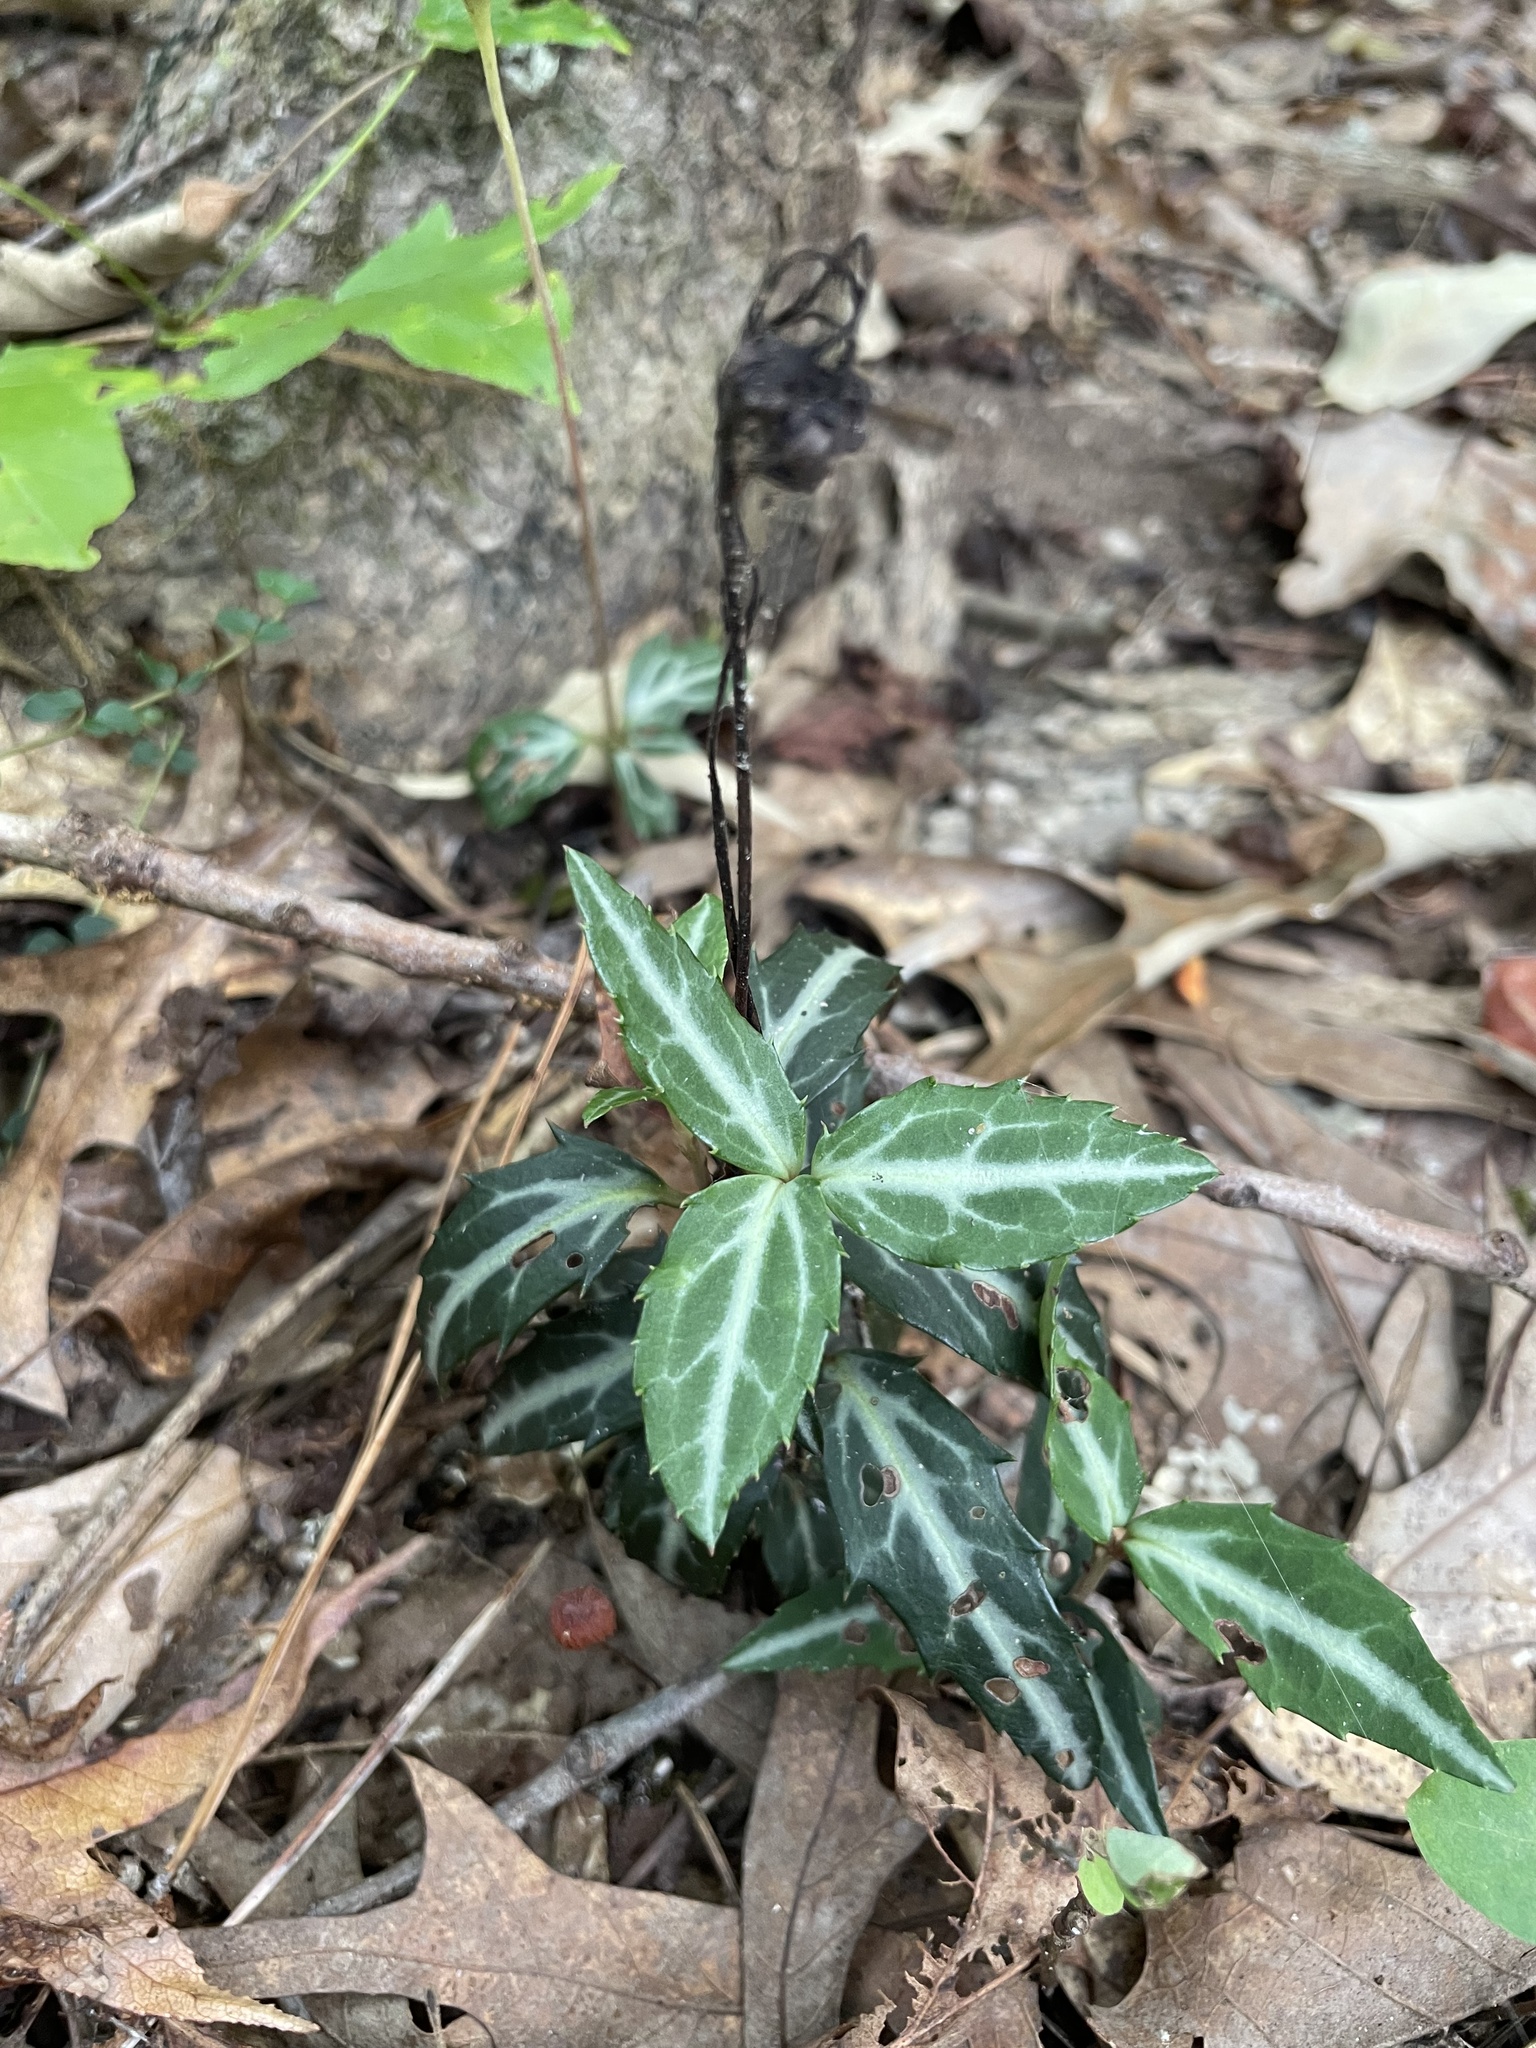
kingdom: Plantae
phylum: Tracheophyta
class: Magnoliopsida
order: Ericales
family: Ericaceae
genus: Chimaphila
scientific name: Chimaphila maculata
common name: Spotted pipsissewa
